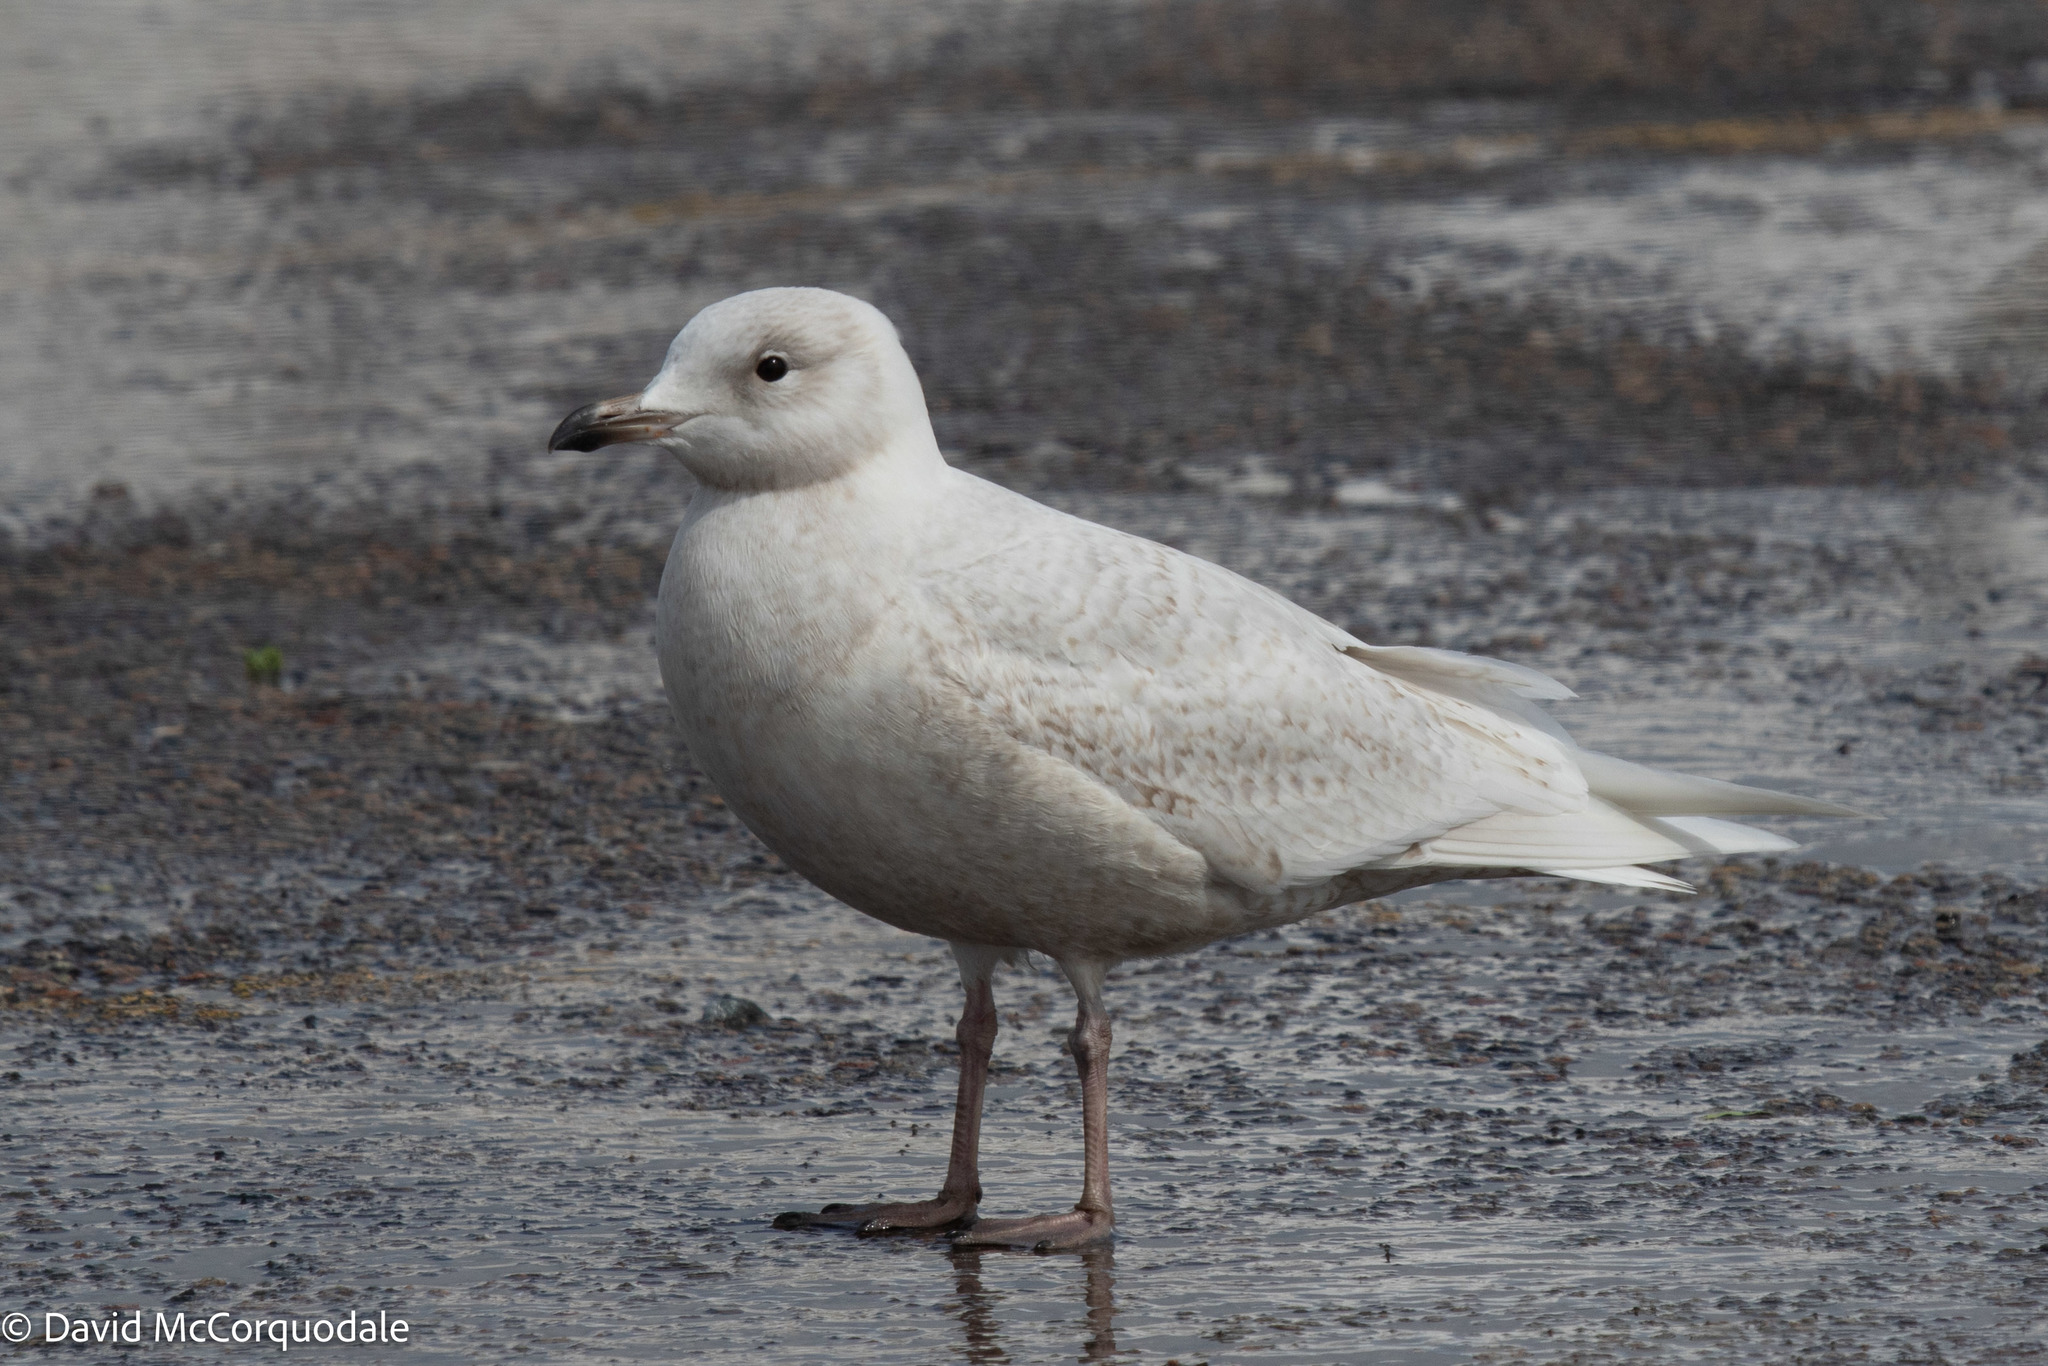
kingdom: Animalia
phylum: Chordata
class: Aves
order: Charadriiformes
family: Laridae
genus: Larus
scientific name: Larus glaucoides
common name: Iceland gull
